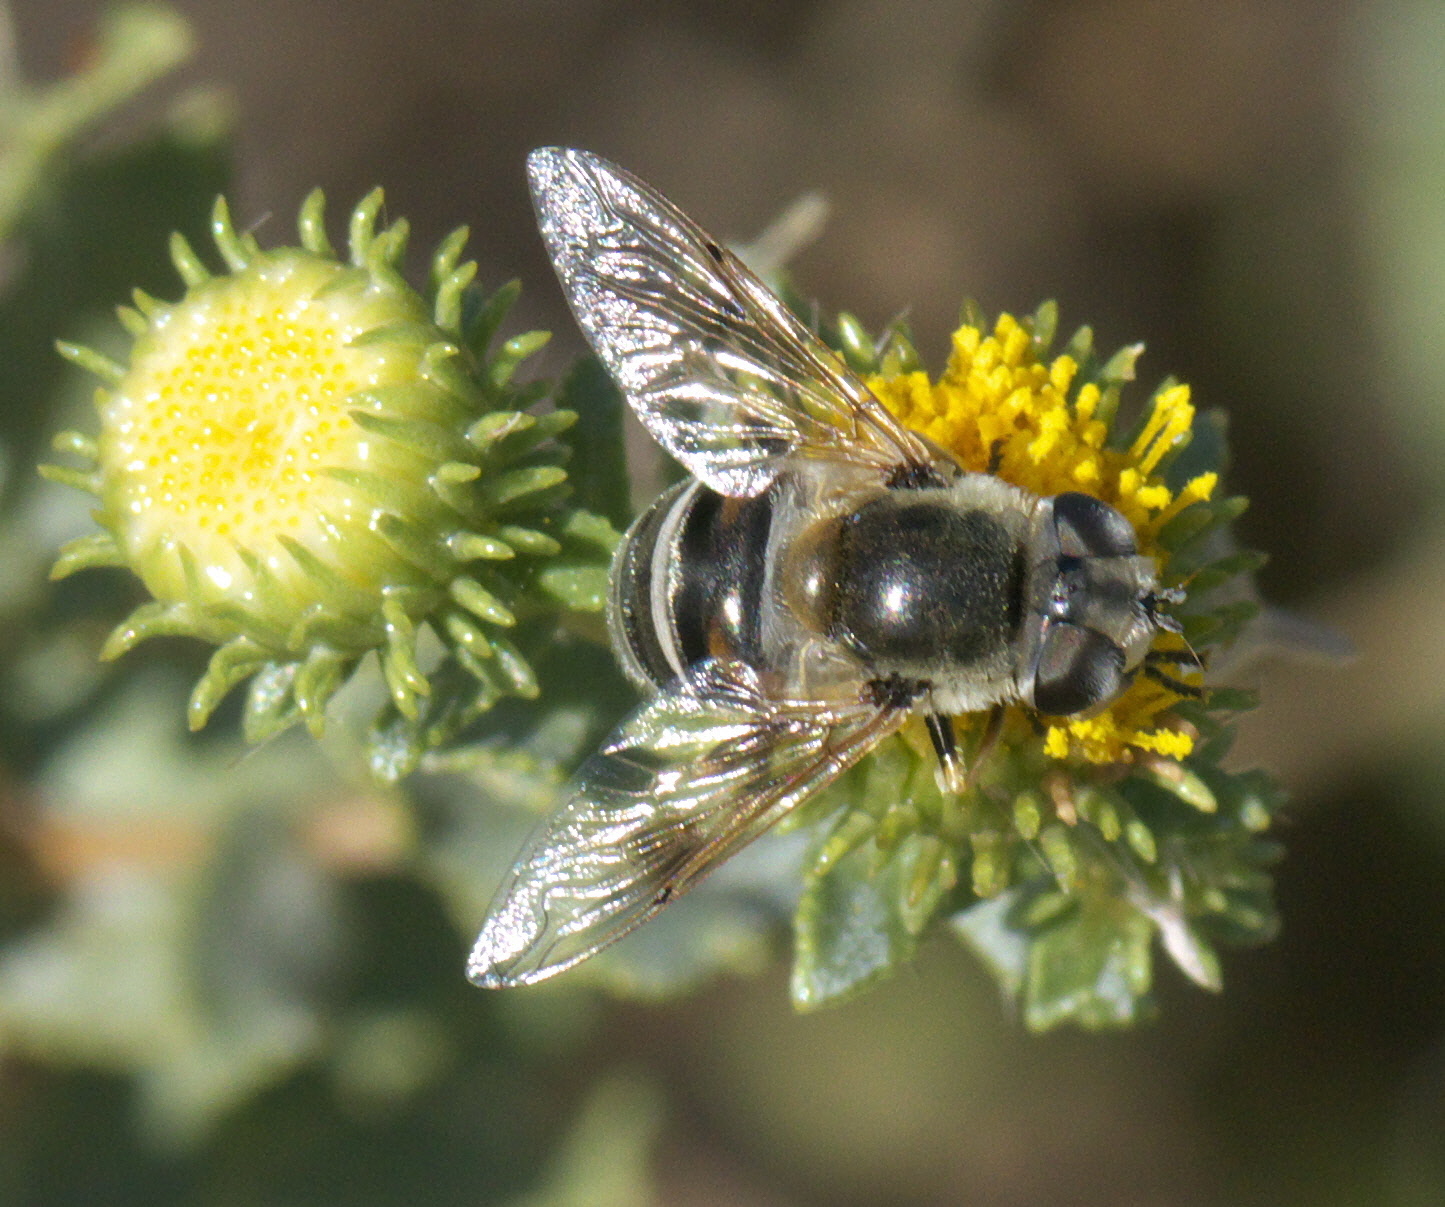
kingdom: Animalia
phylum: Arthropoda
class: Insecta
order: Diptera
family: Syrphidae
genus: Eristalis
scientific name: Eristalis stipator
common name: Yellow-shouldered drone fly
